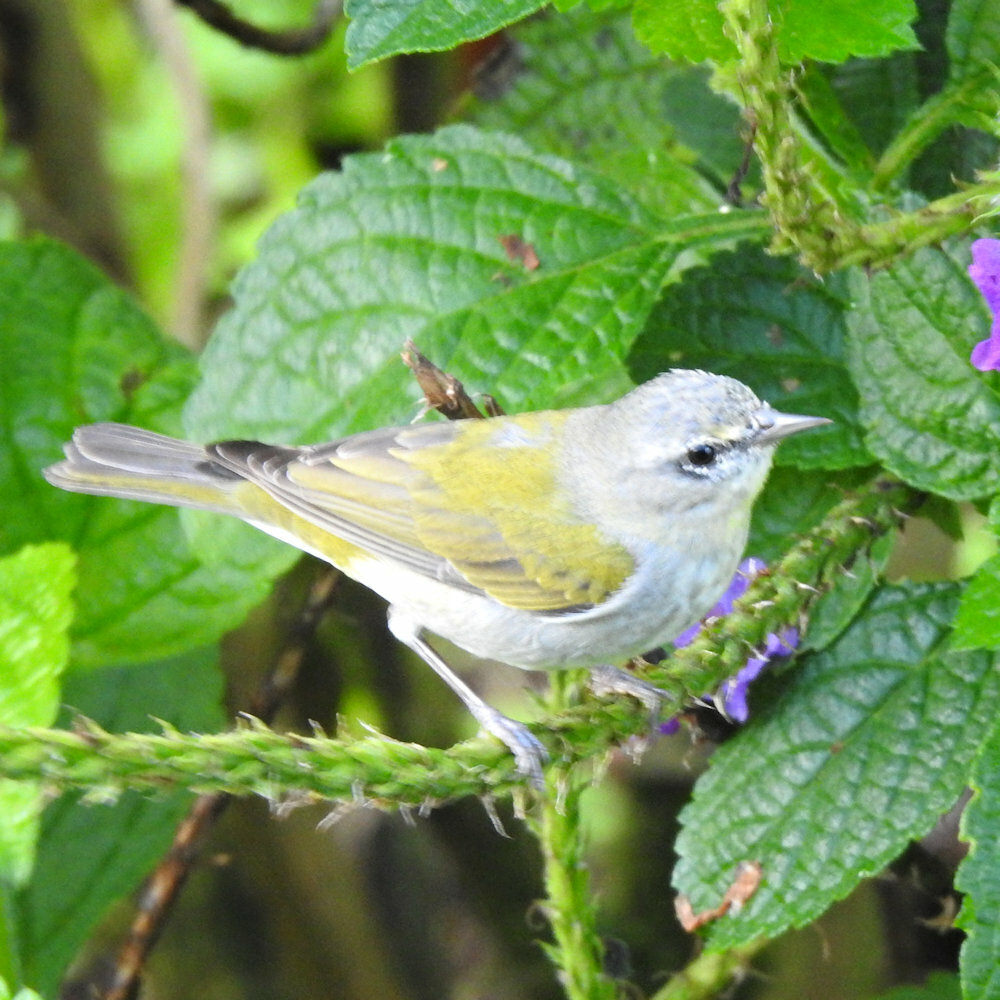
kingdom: Animalia
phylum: Chordata
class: Aves
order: Passeriformes
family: Parulidae
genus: Leiothlypis
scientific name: Leiothlypis peregrina
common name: Tennessee warbler
